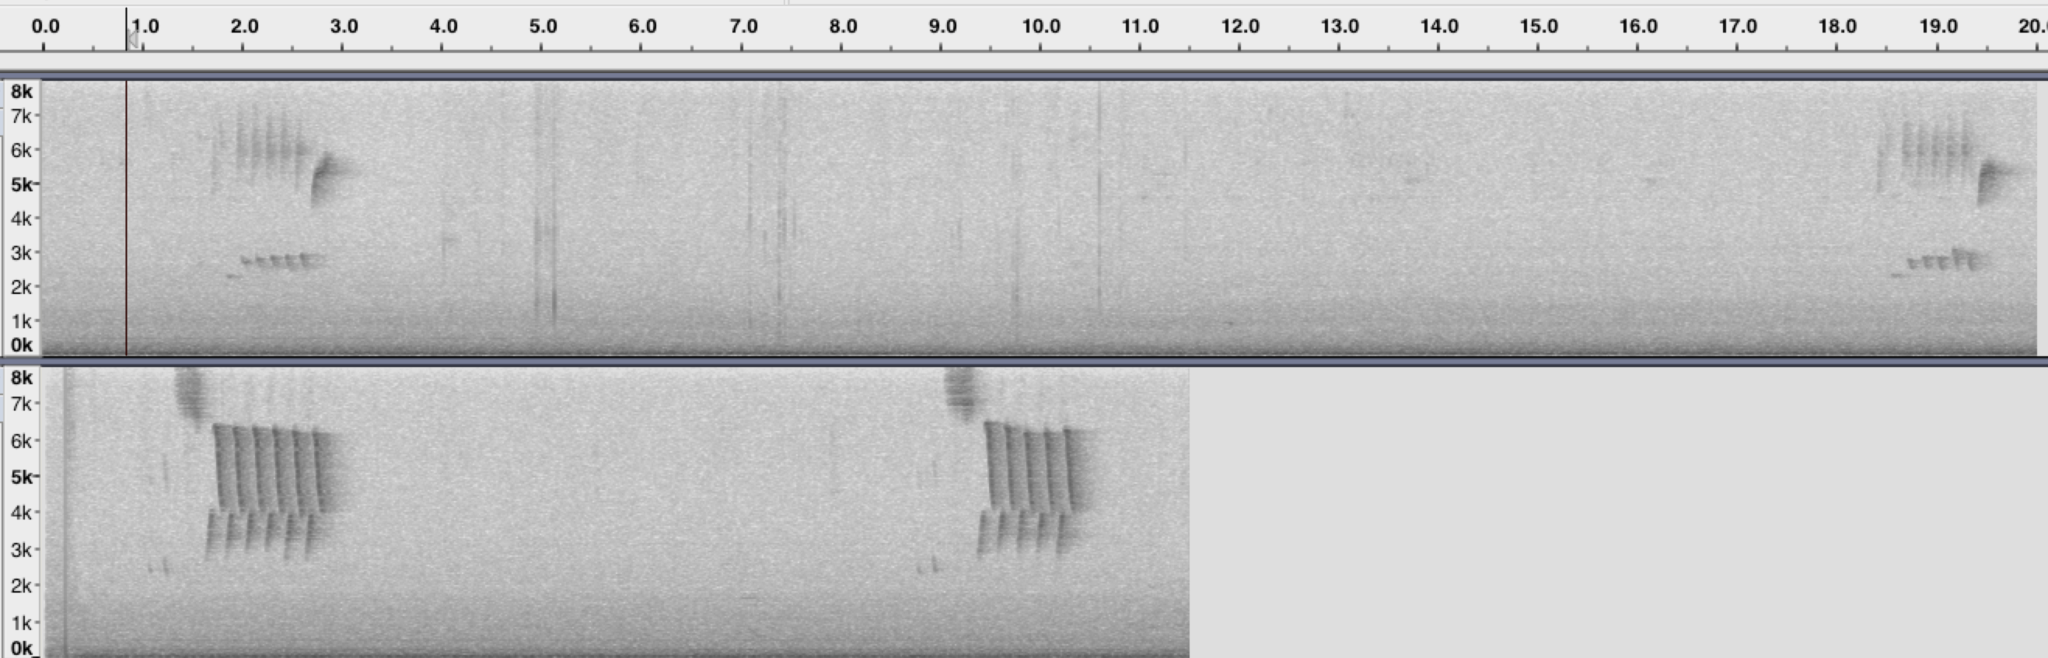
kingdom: Animalia
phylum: Chordata
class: Aves
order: Passeriformes
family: Troglodytidae
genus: Thryomanes
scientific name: Thryomanes bewickii
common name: Bewick's wren
